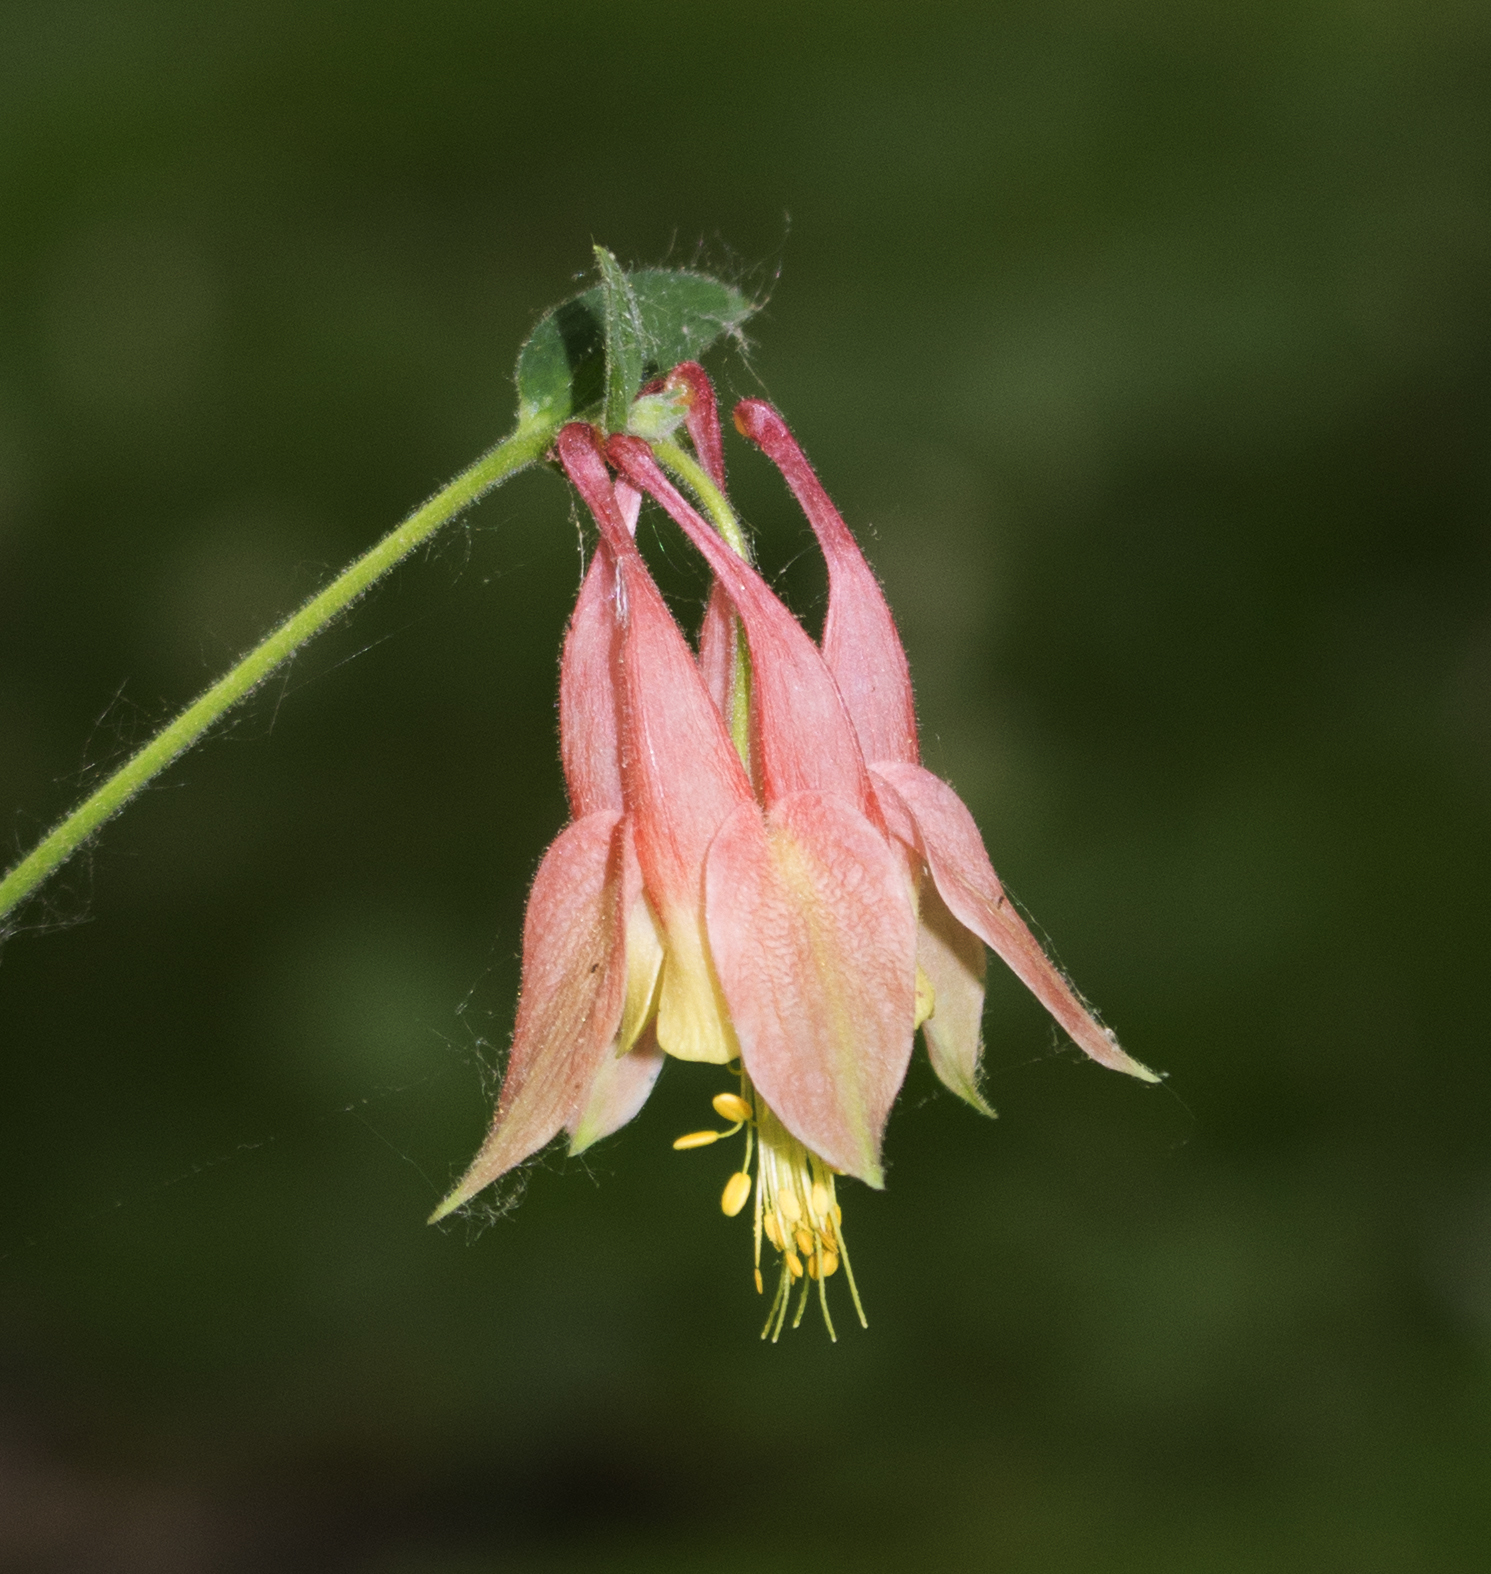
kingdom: Plantae
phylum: Tracheophyta
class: Magnoliopsida
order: Ranunculales
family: Ranunculaceae
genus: Aquilegia
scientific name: Aquilegia canadensis
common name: American columbine
